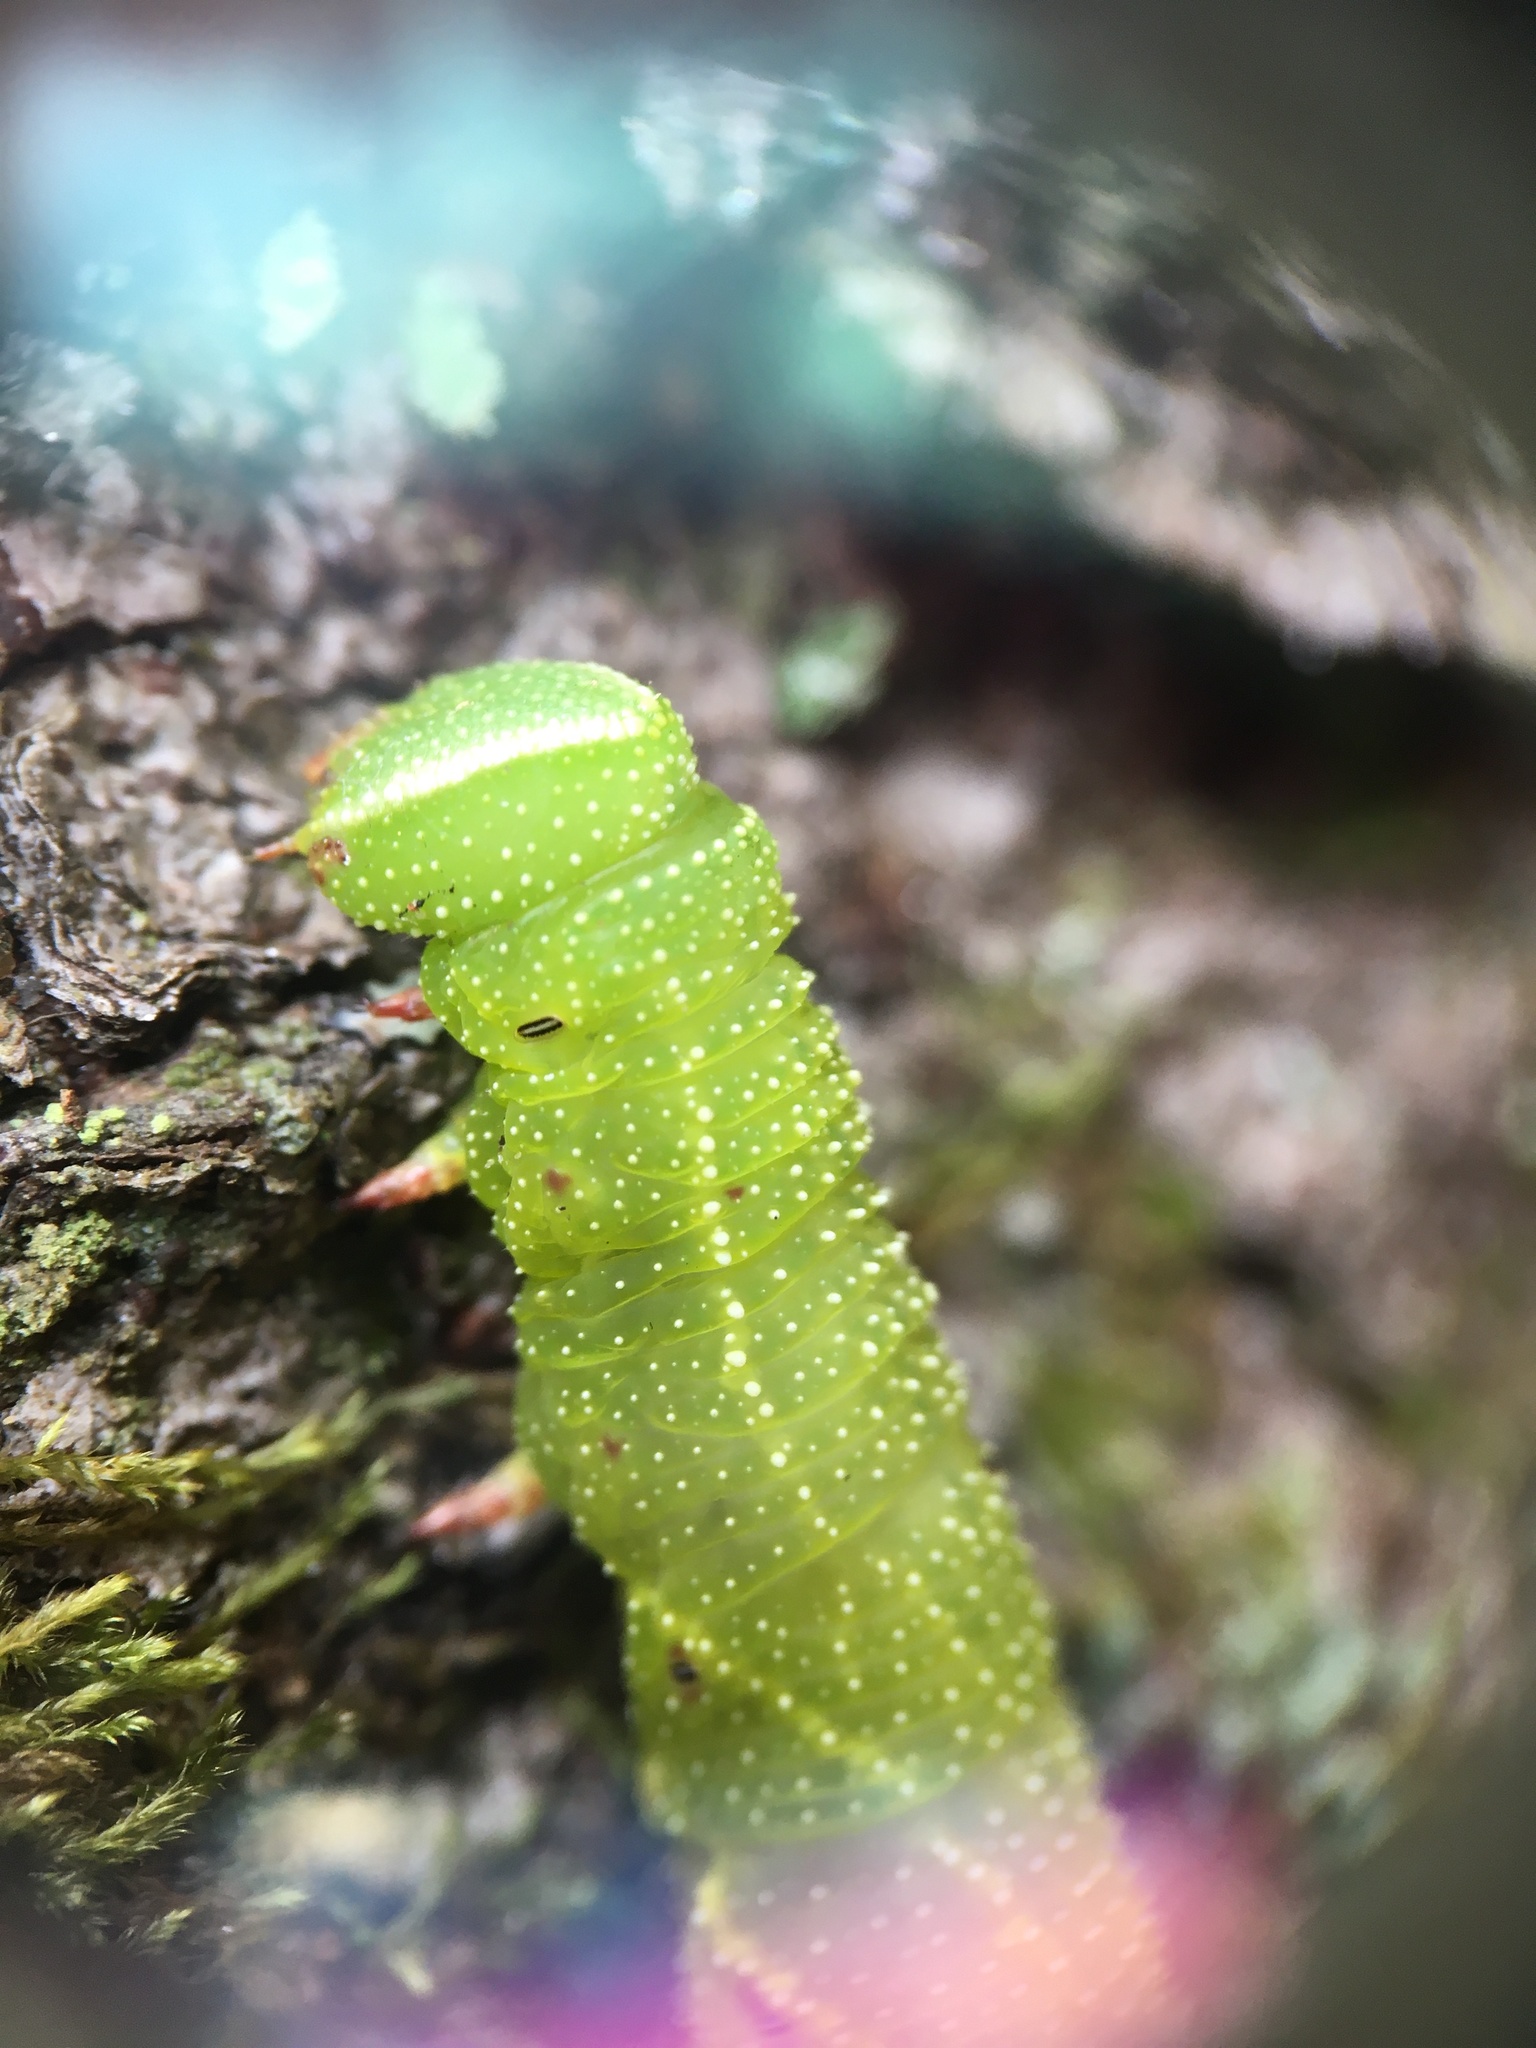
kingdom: Animalia
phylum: Arthropoda
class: Insecta
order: Lepidoptera
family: Sphingidae
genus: Paonias
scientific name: Paonias excaecata
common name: Blind-eyed sphinx
